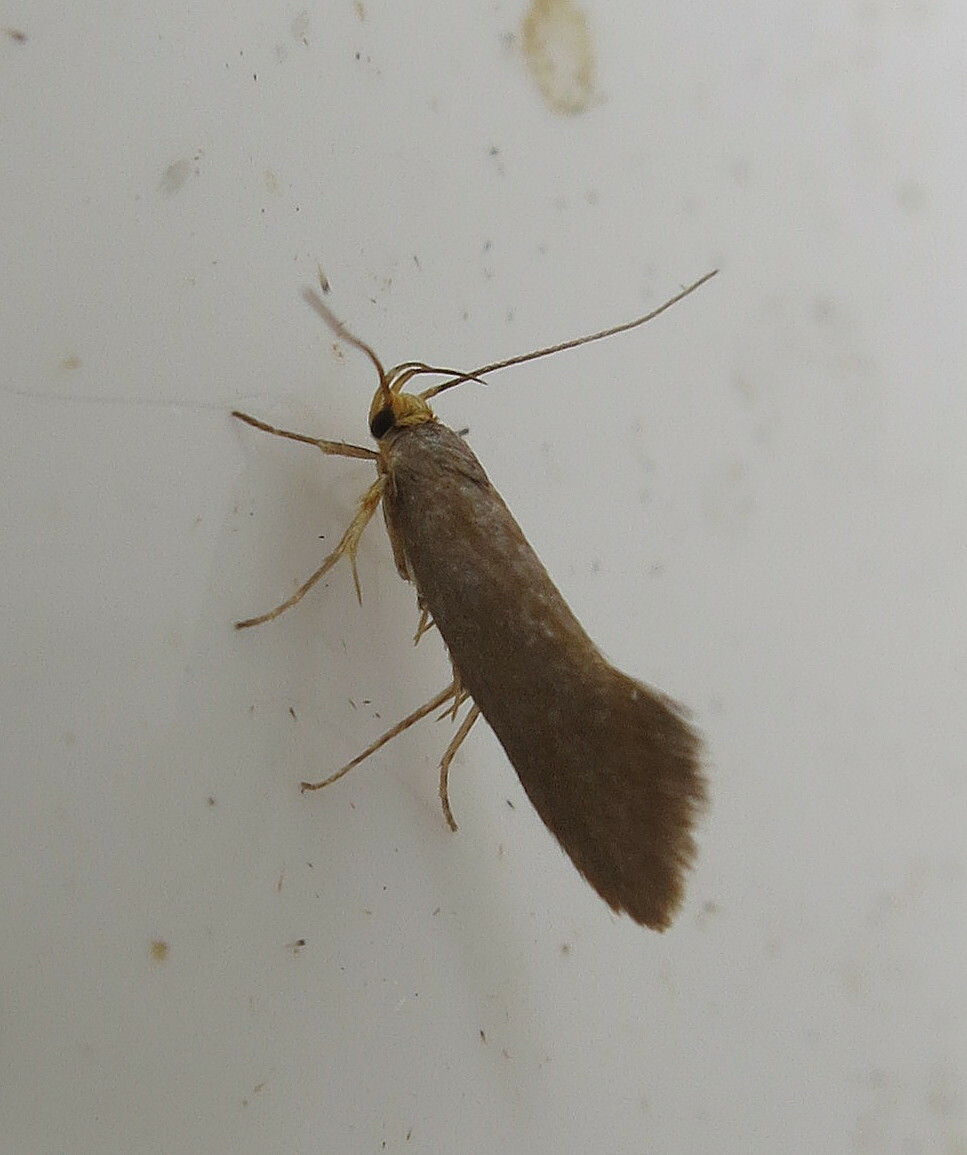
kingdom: Animalia
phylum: Arthropoda
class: Insecta
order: Lepidoptera
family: Oecophoridae
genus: Borkhausenia
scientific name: Borkhausenia Crassa unitella
